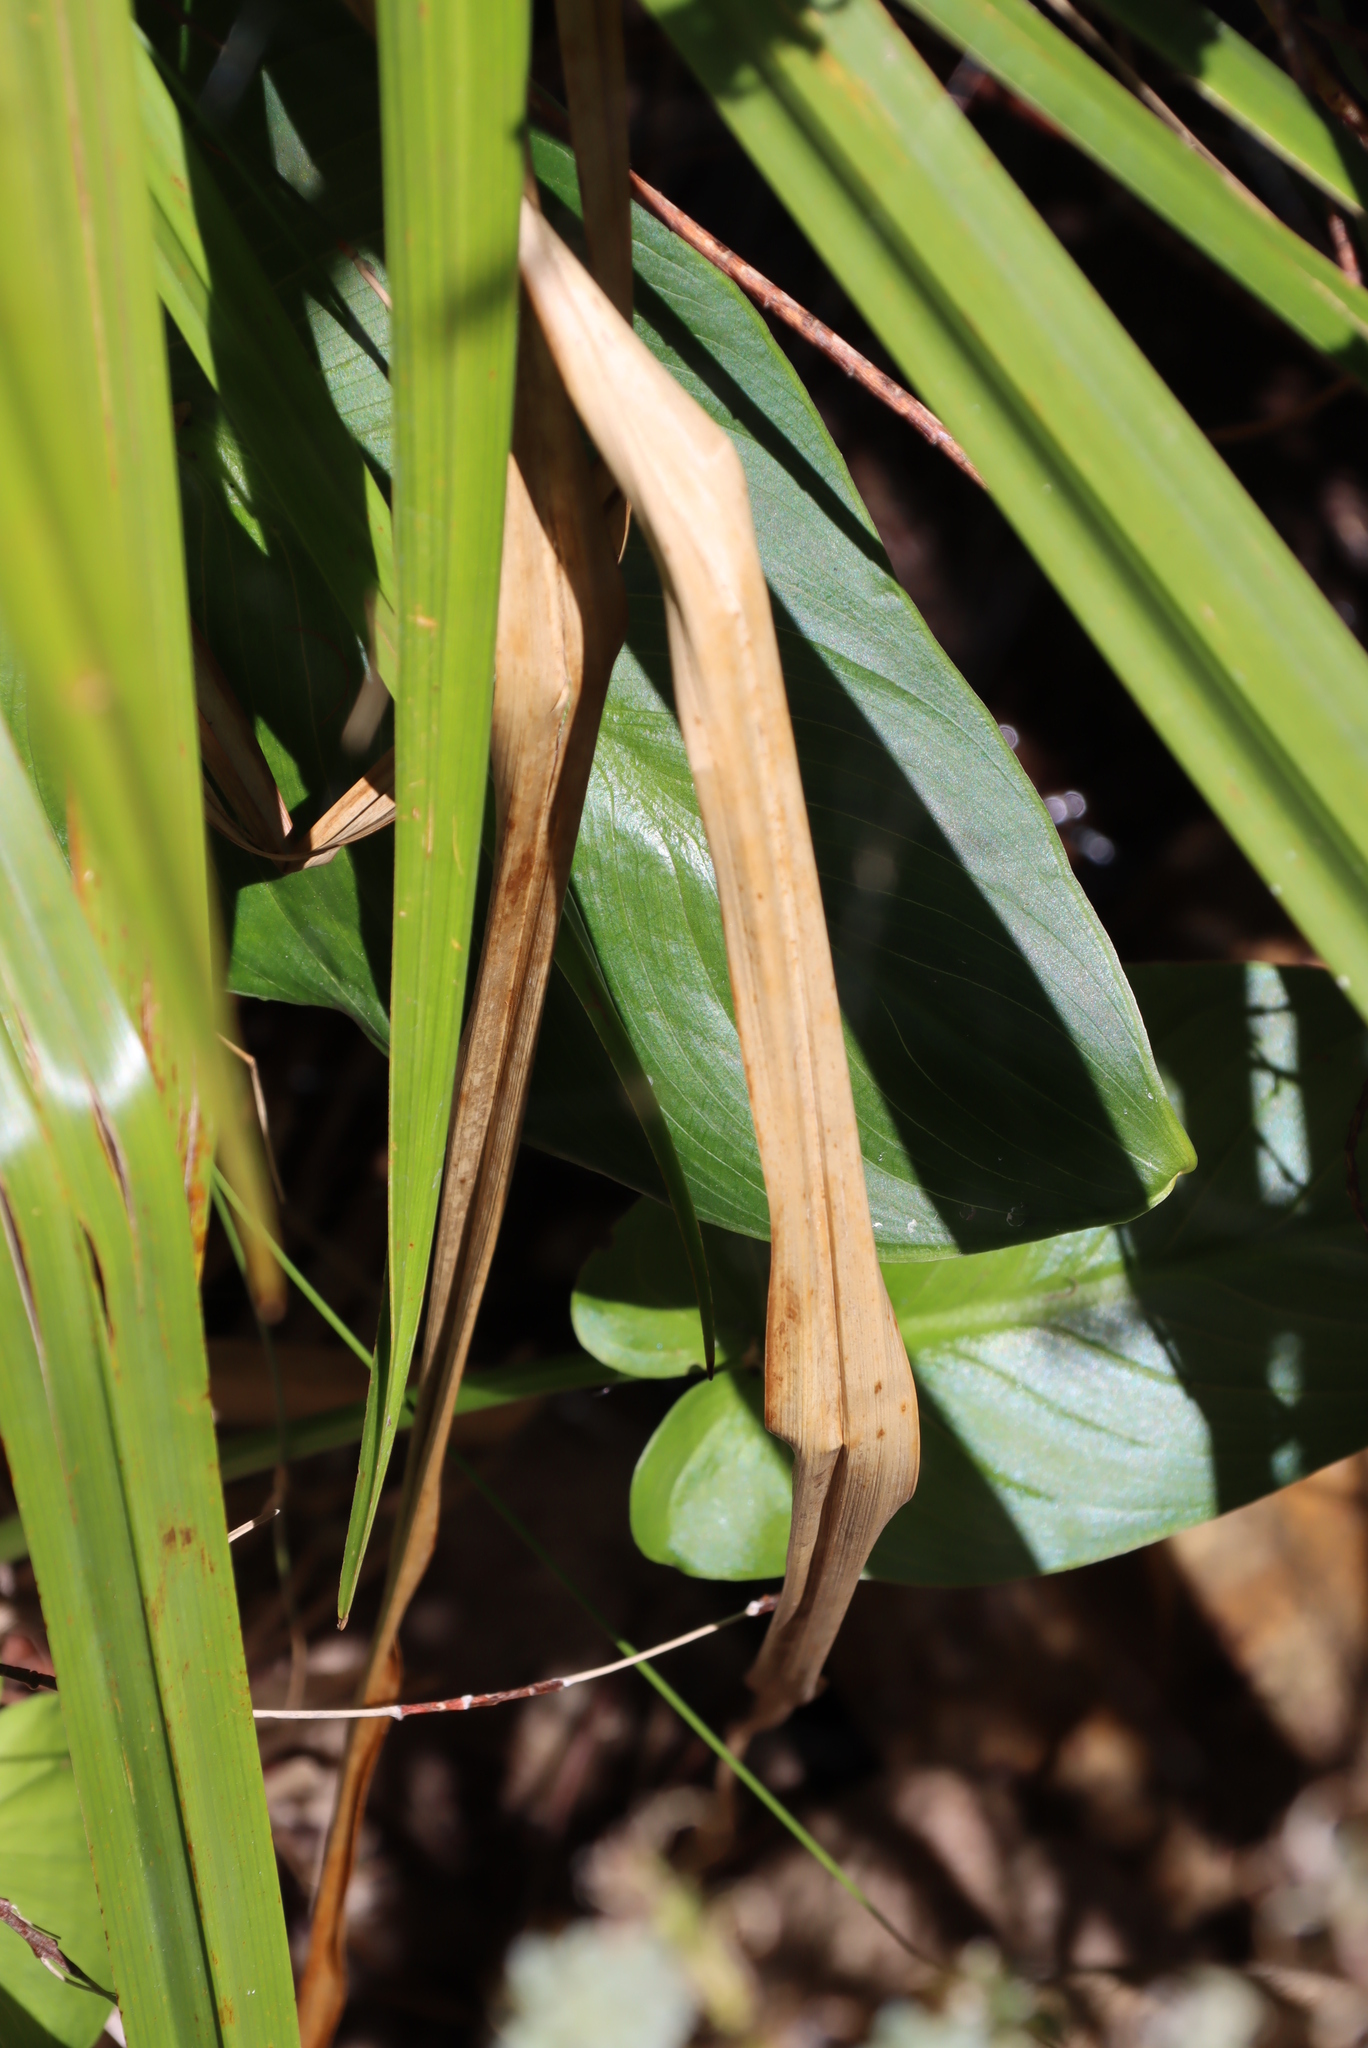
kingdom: Plantae
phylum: Tracheophyta
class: Liliopsida
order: Alismatales
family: Araceae
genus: Zantedeschia
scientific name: Zantedeschia aethiopica
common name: Altar-lily
